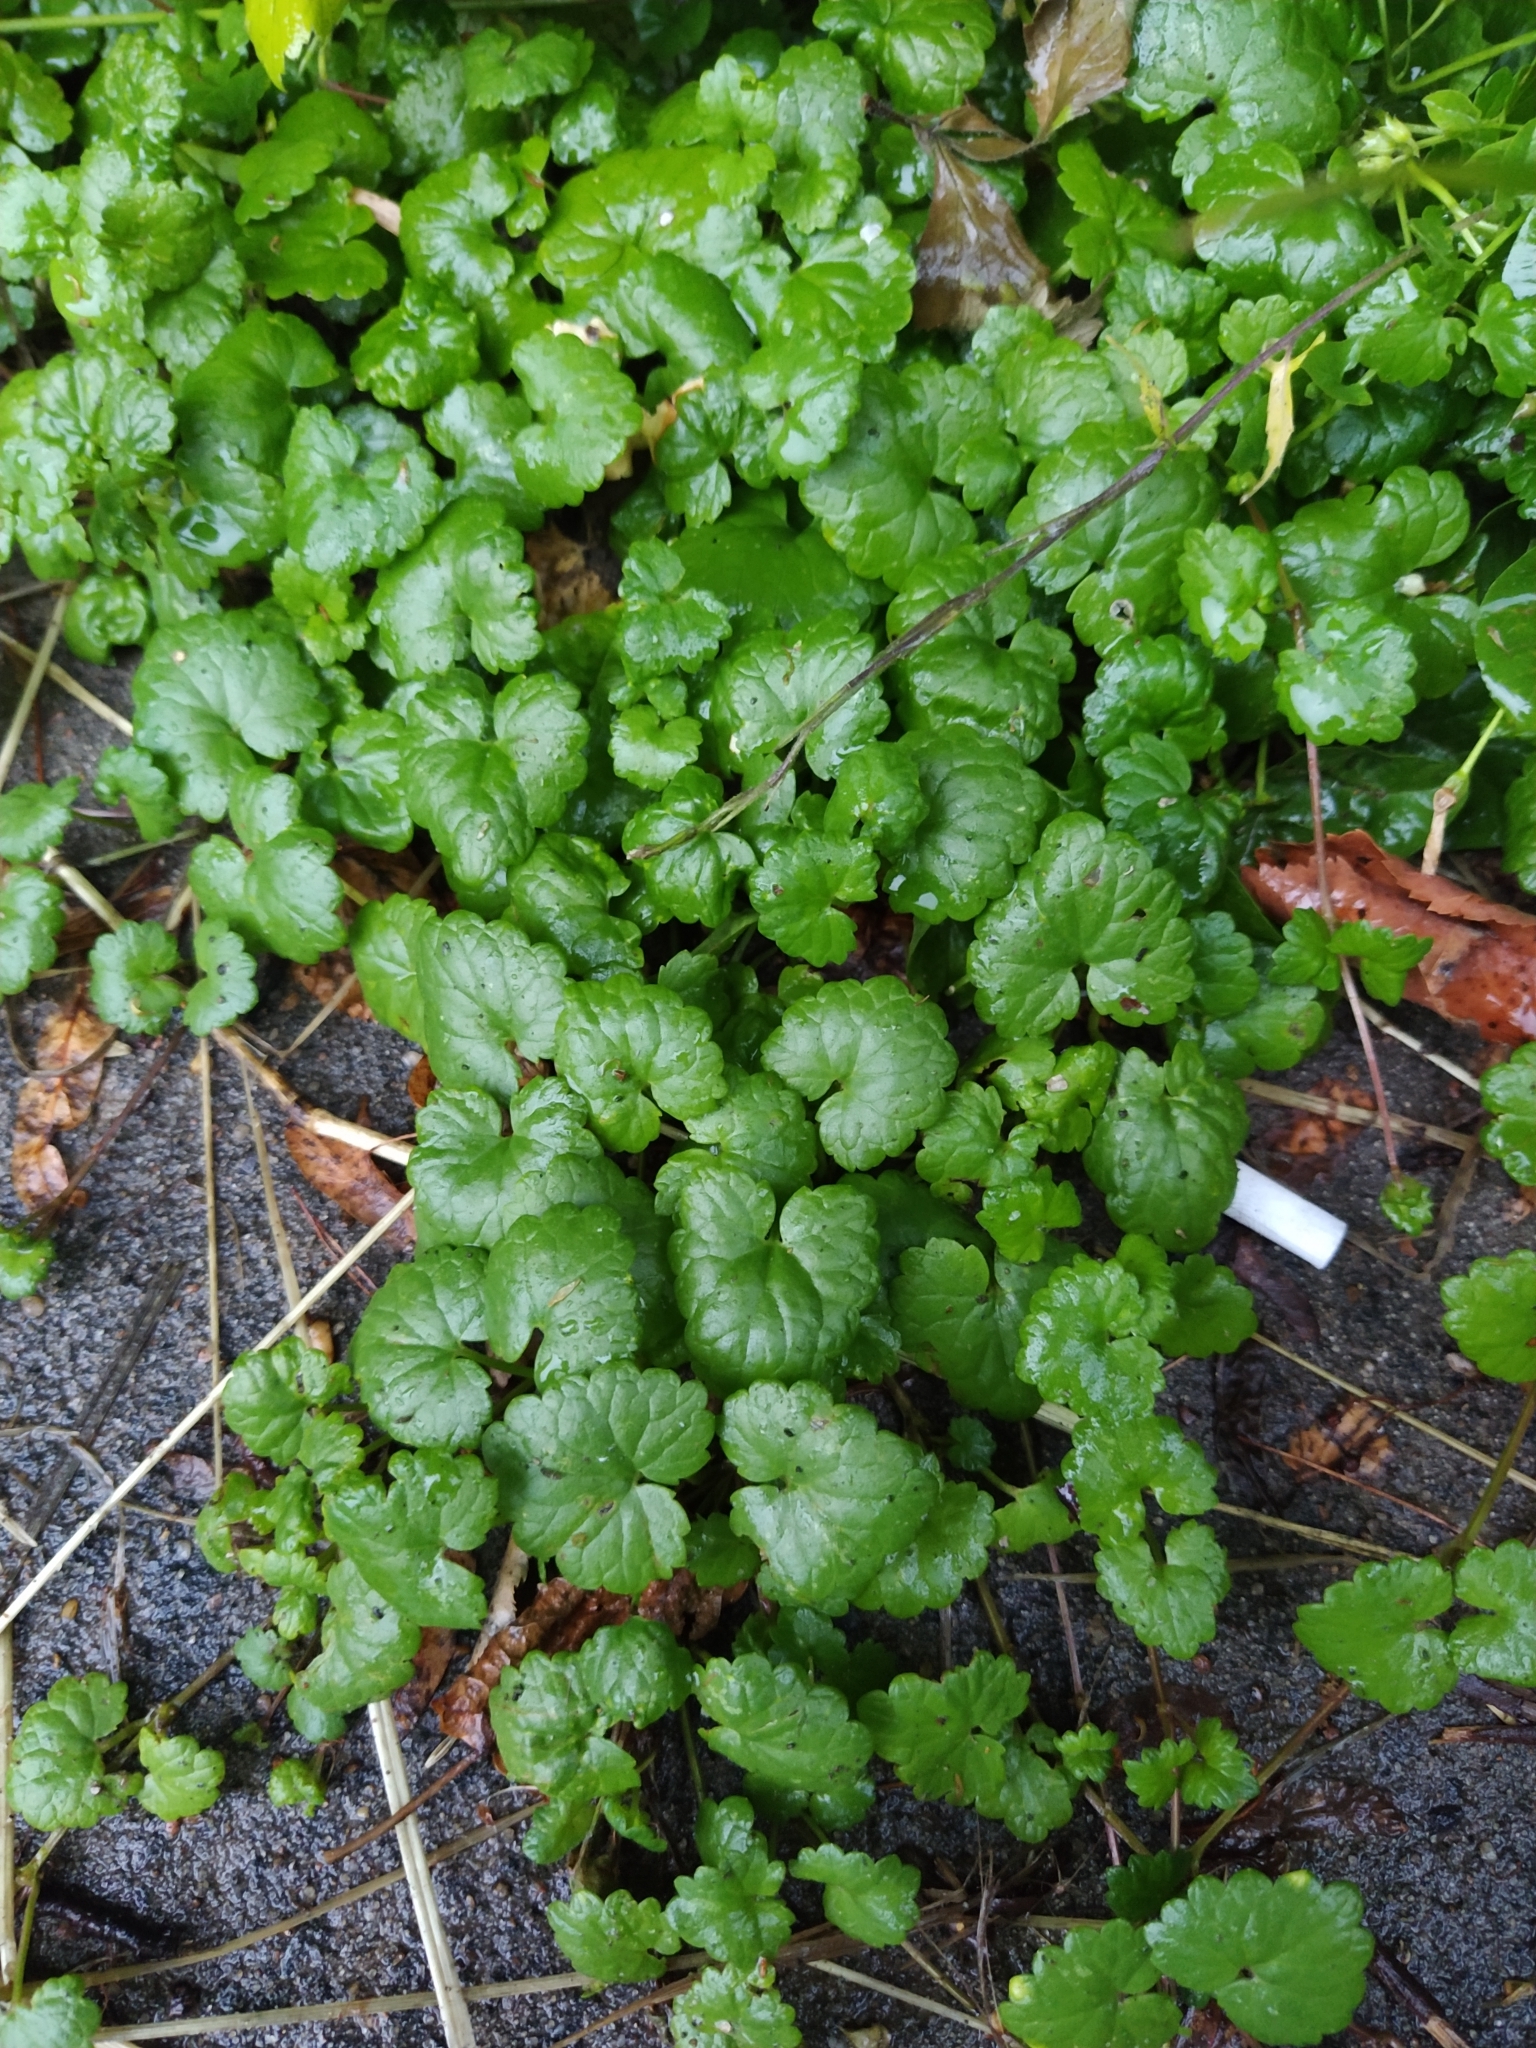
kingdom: Plantae
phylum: Tracheophyta
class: Magnoliopsida
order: Lamiales
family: Lamiaceae
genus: Glechoma
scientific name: Glechoma hederacea
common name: Ground ivy
